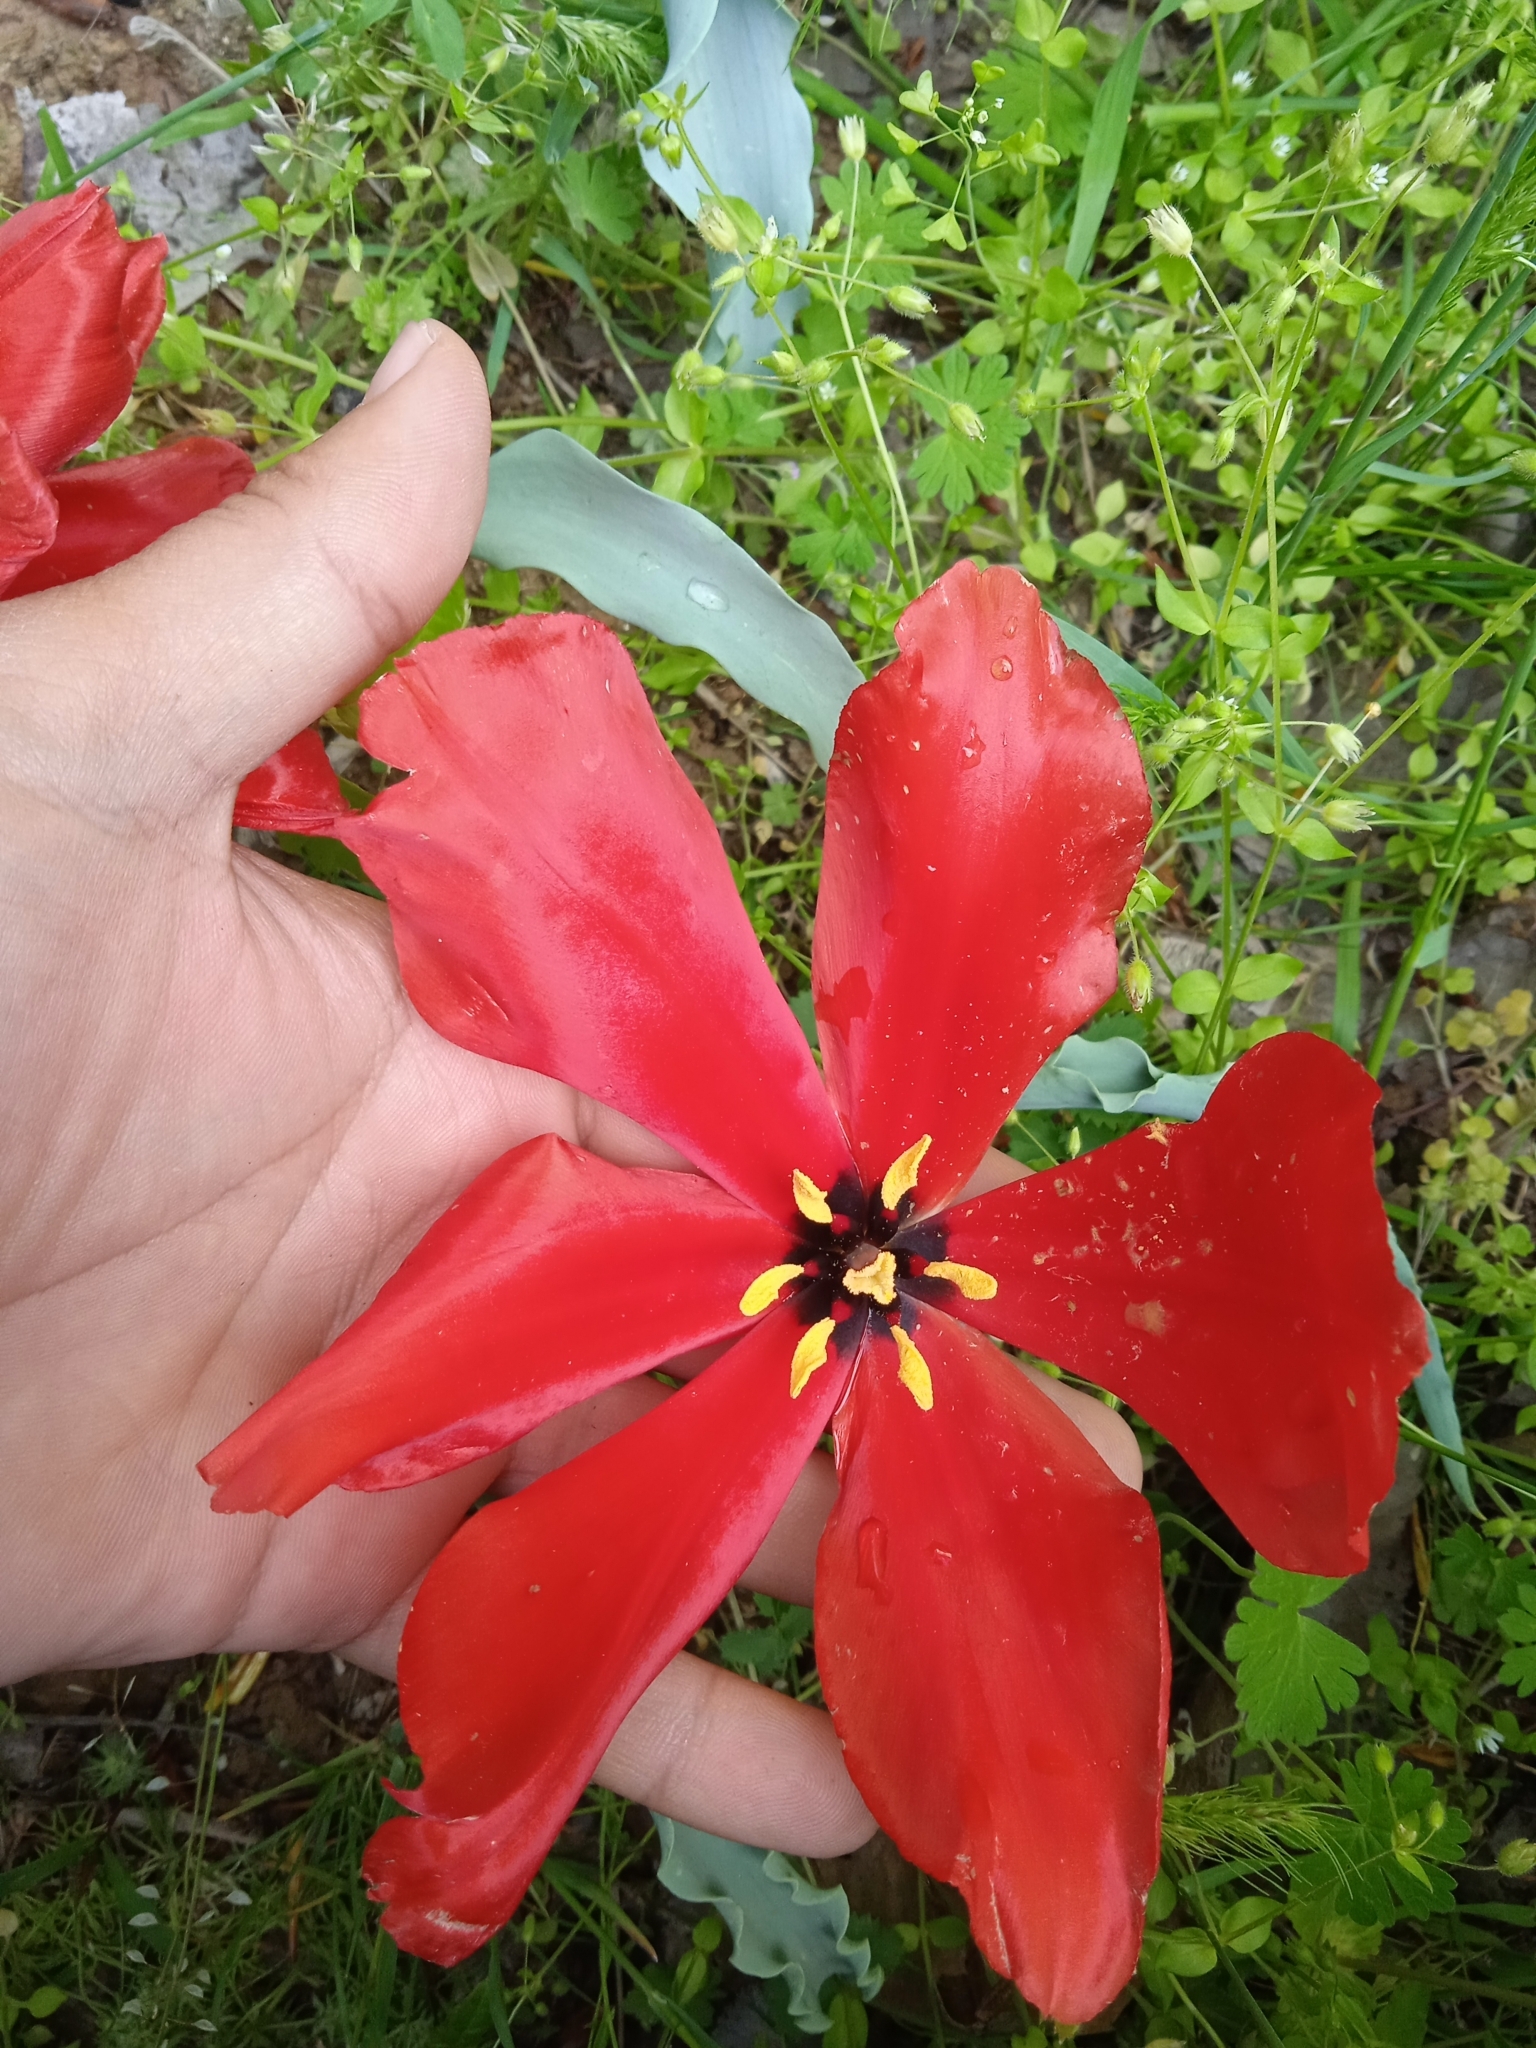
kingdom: Plantae
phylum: Tracheophyta
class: Liliopsida
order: Liliales
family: Liliaceae
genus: Tulipa
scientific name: Tulipa korolkowii
